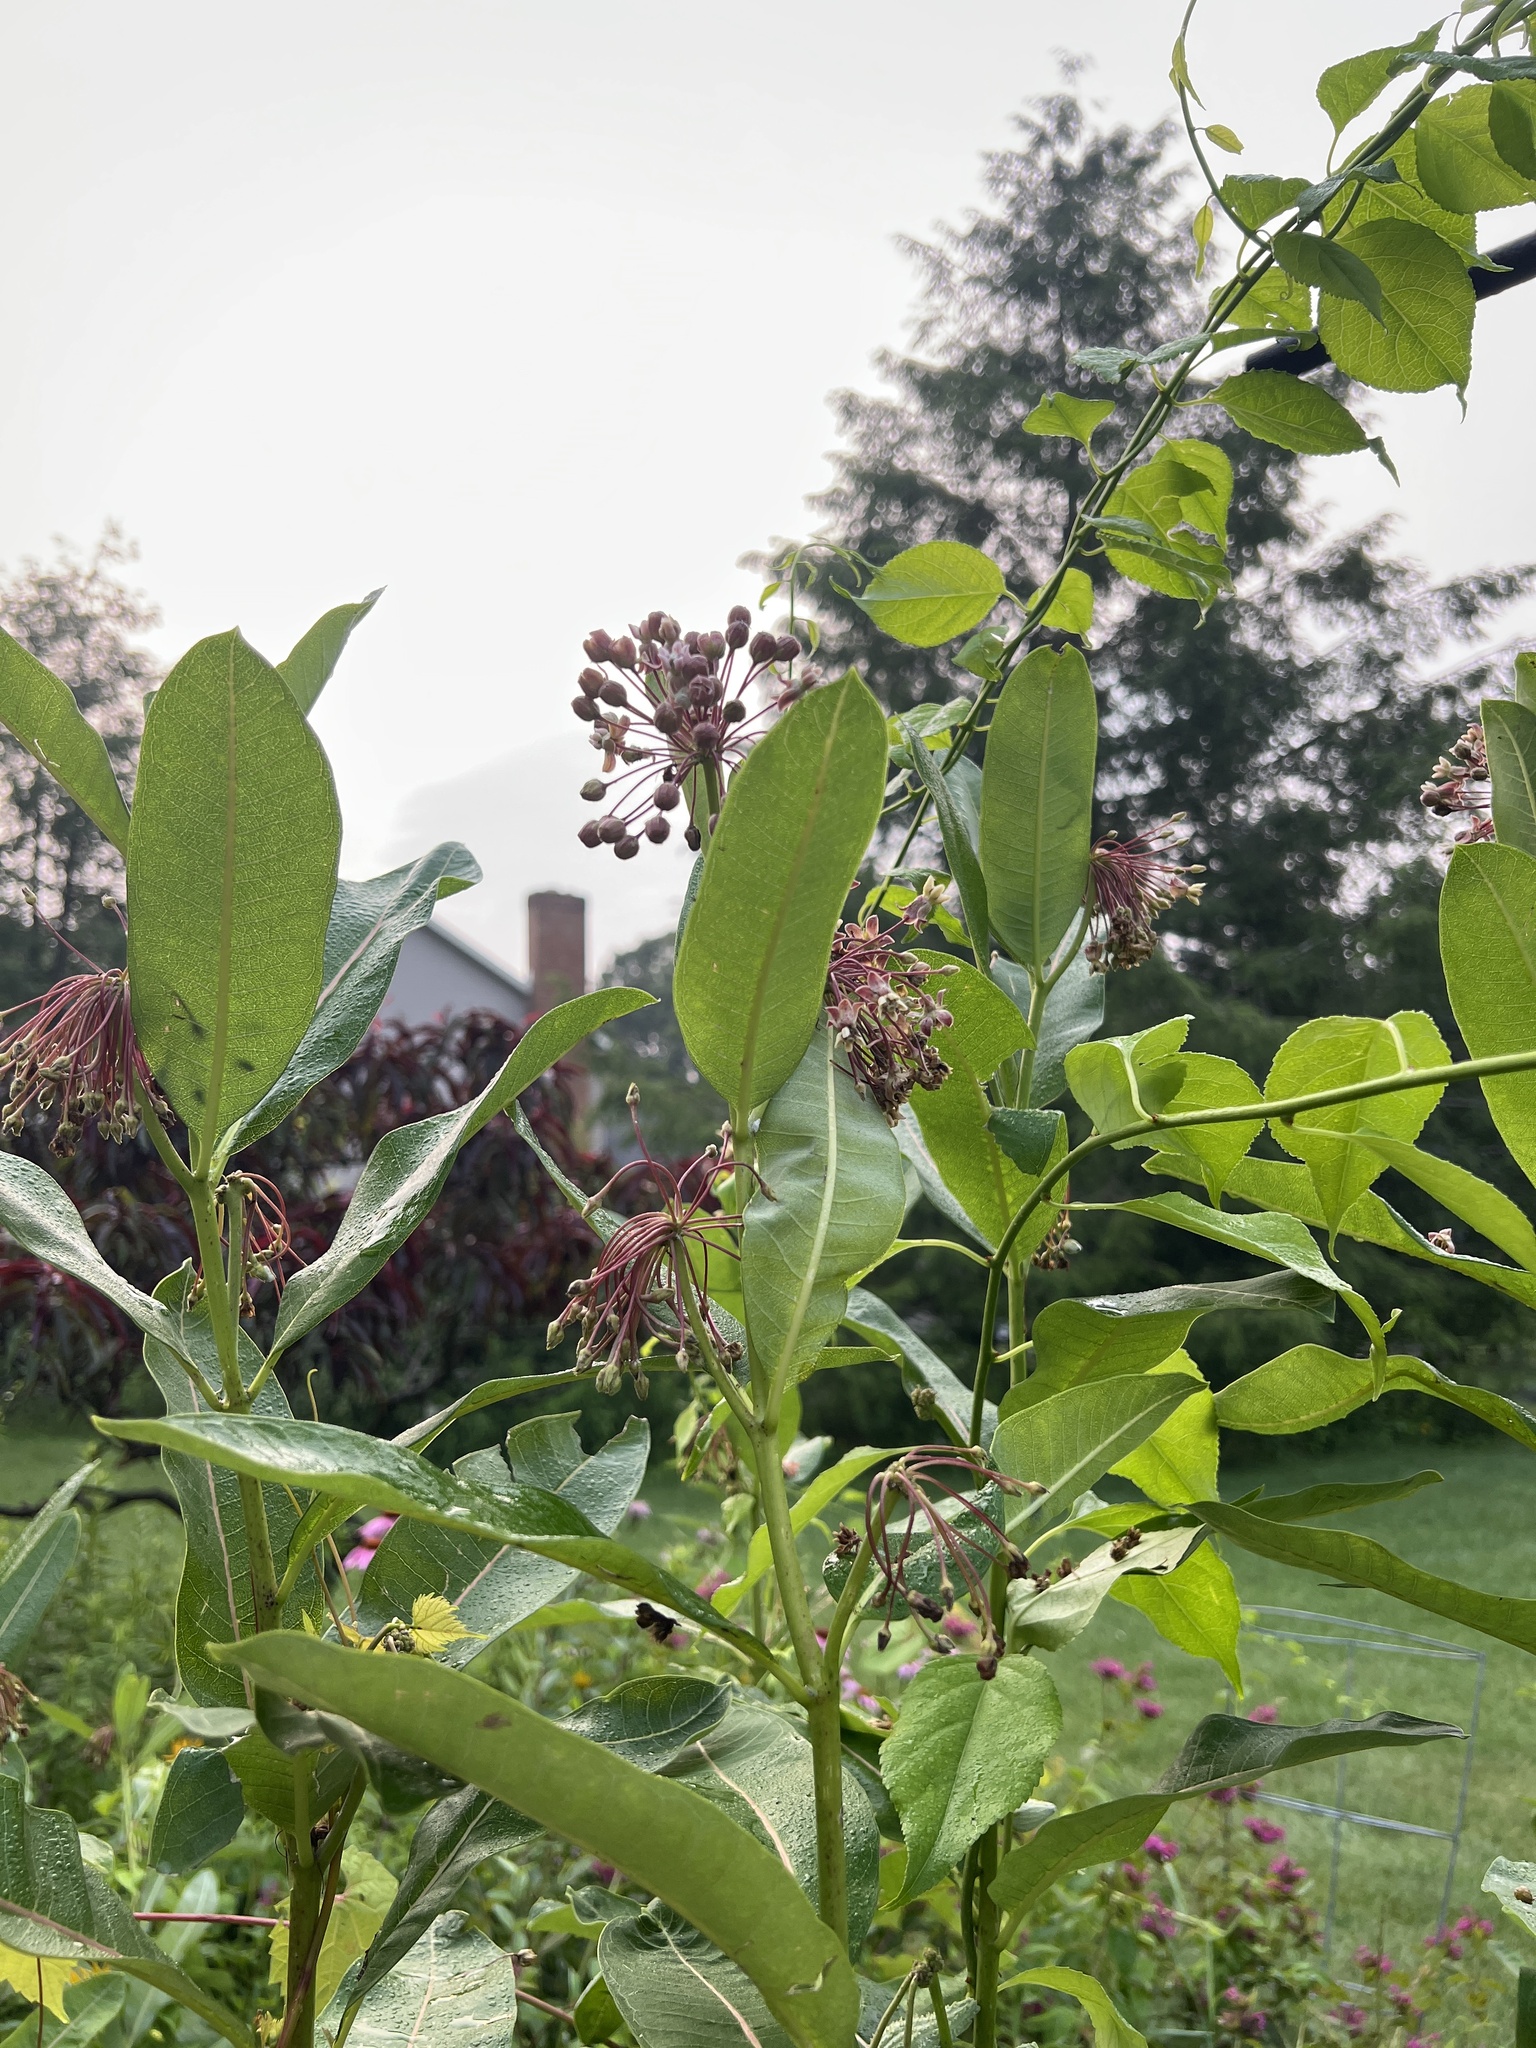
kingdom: Plantae
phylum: Tracheophyta
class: Magnoliopsida
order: Gentianales
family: Apocynaceae
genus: Asclepias
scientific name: Asclepias syriaca
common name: Common milkweed
